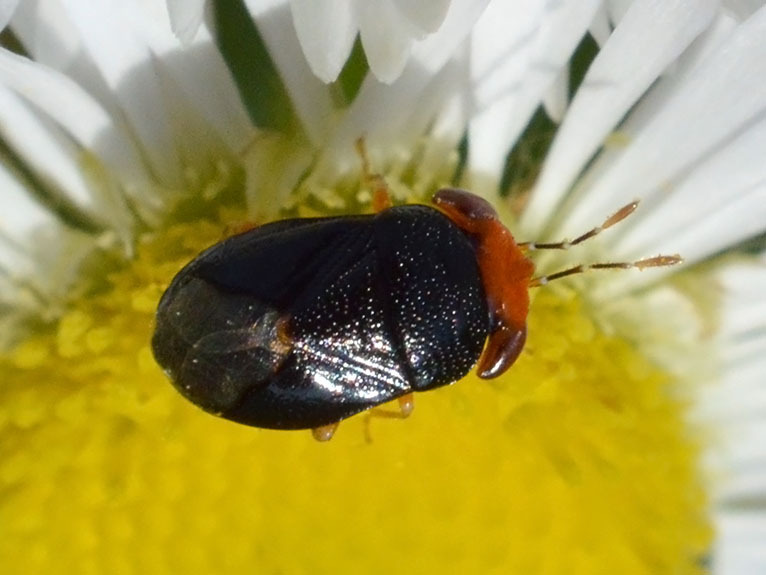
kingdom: Animalia
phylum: Arthropoda
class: Insecta
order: Hemiptera
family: Geocoridae
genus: Geocoris
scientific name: Geocoris erythrocephala
